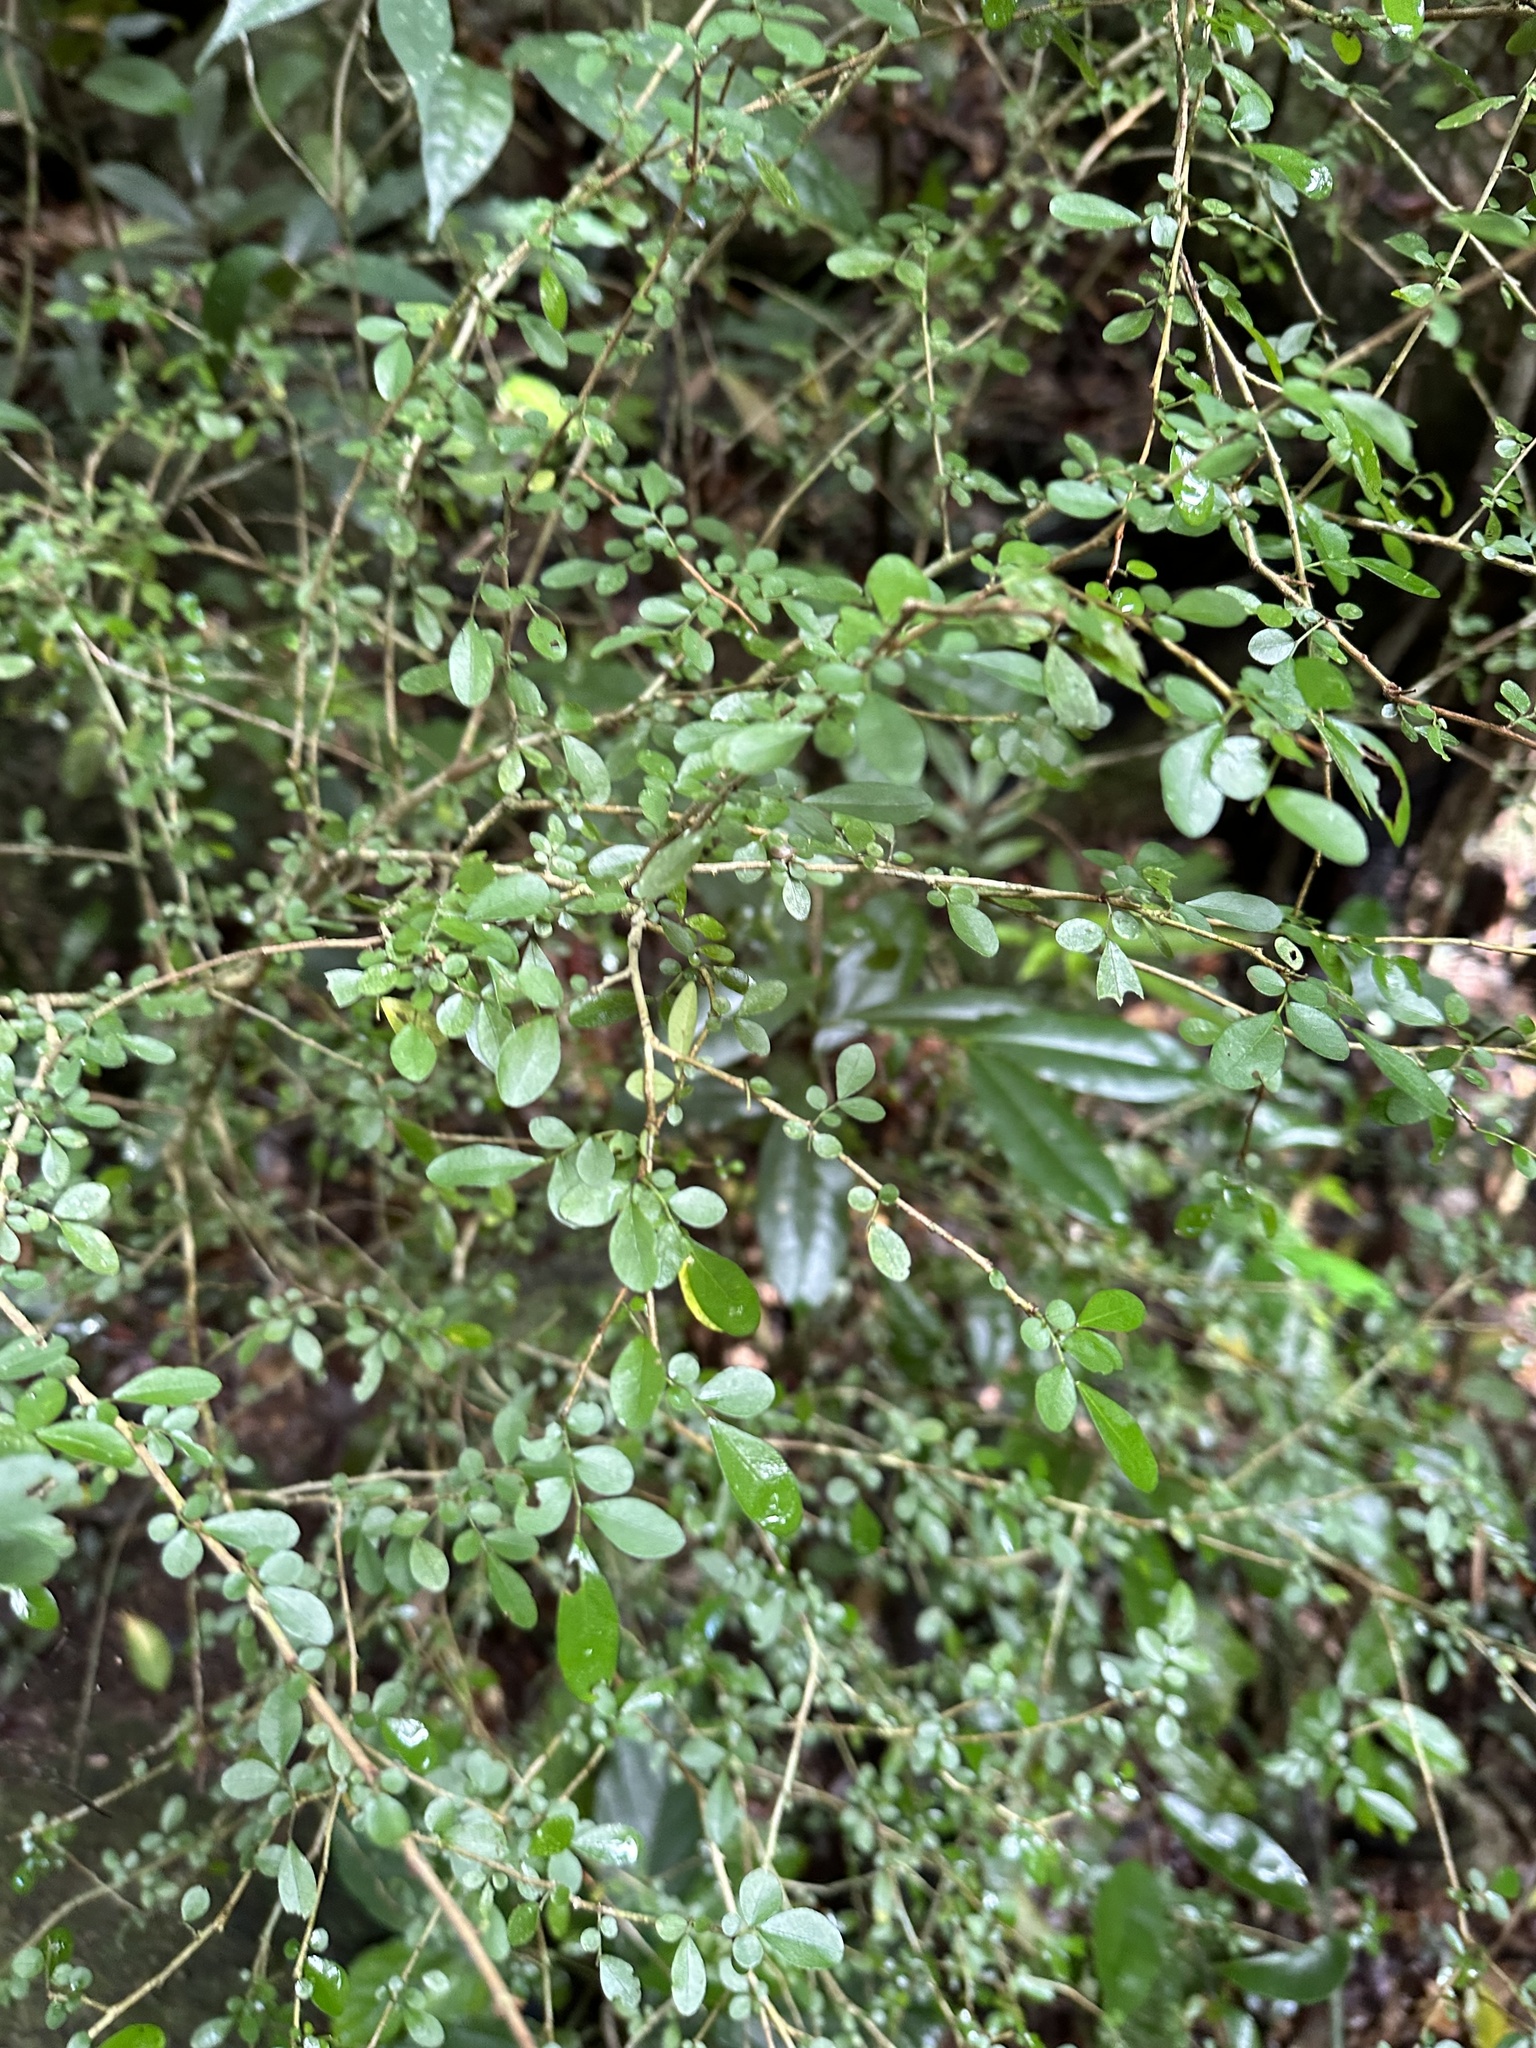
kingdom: Plantae
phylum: Tracheophyta
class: Magnoliopsida
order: Malpighiales
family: Phyllanthaceae
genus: Phyllanthus
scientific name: Phyllanthus microcladus
